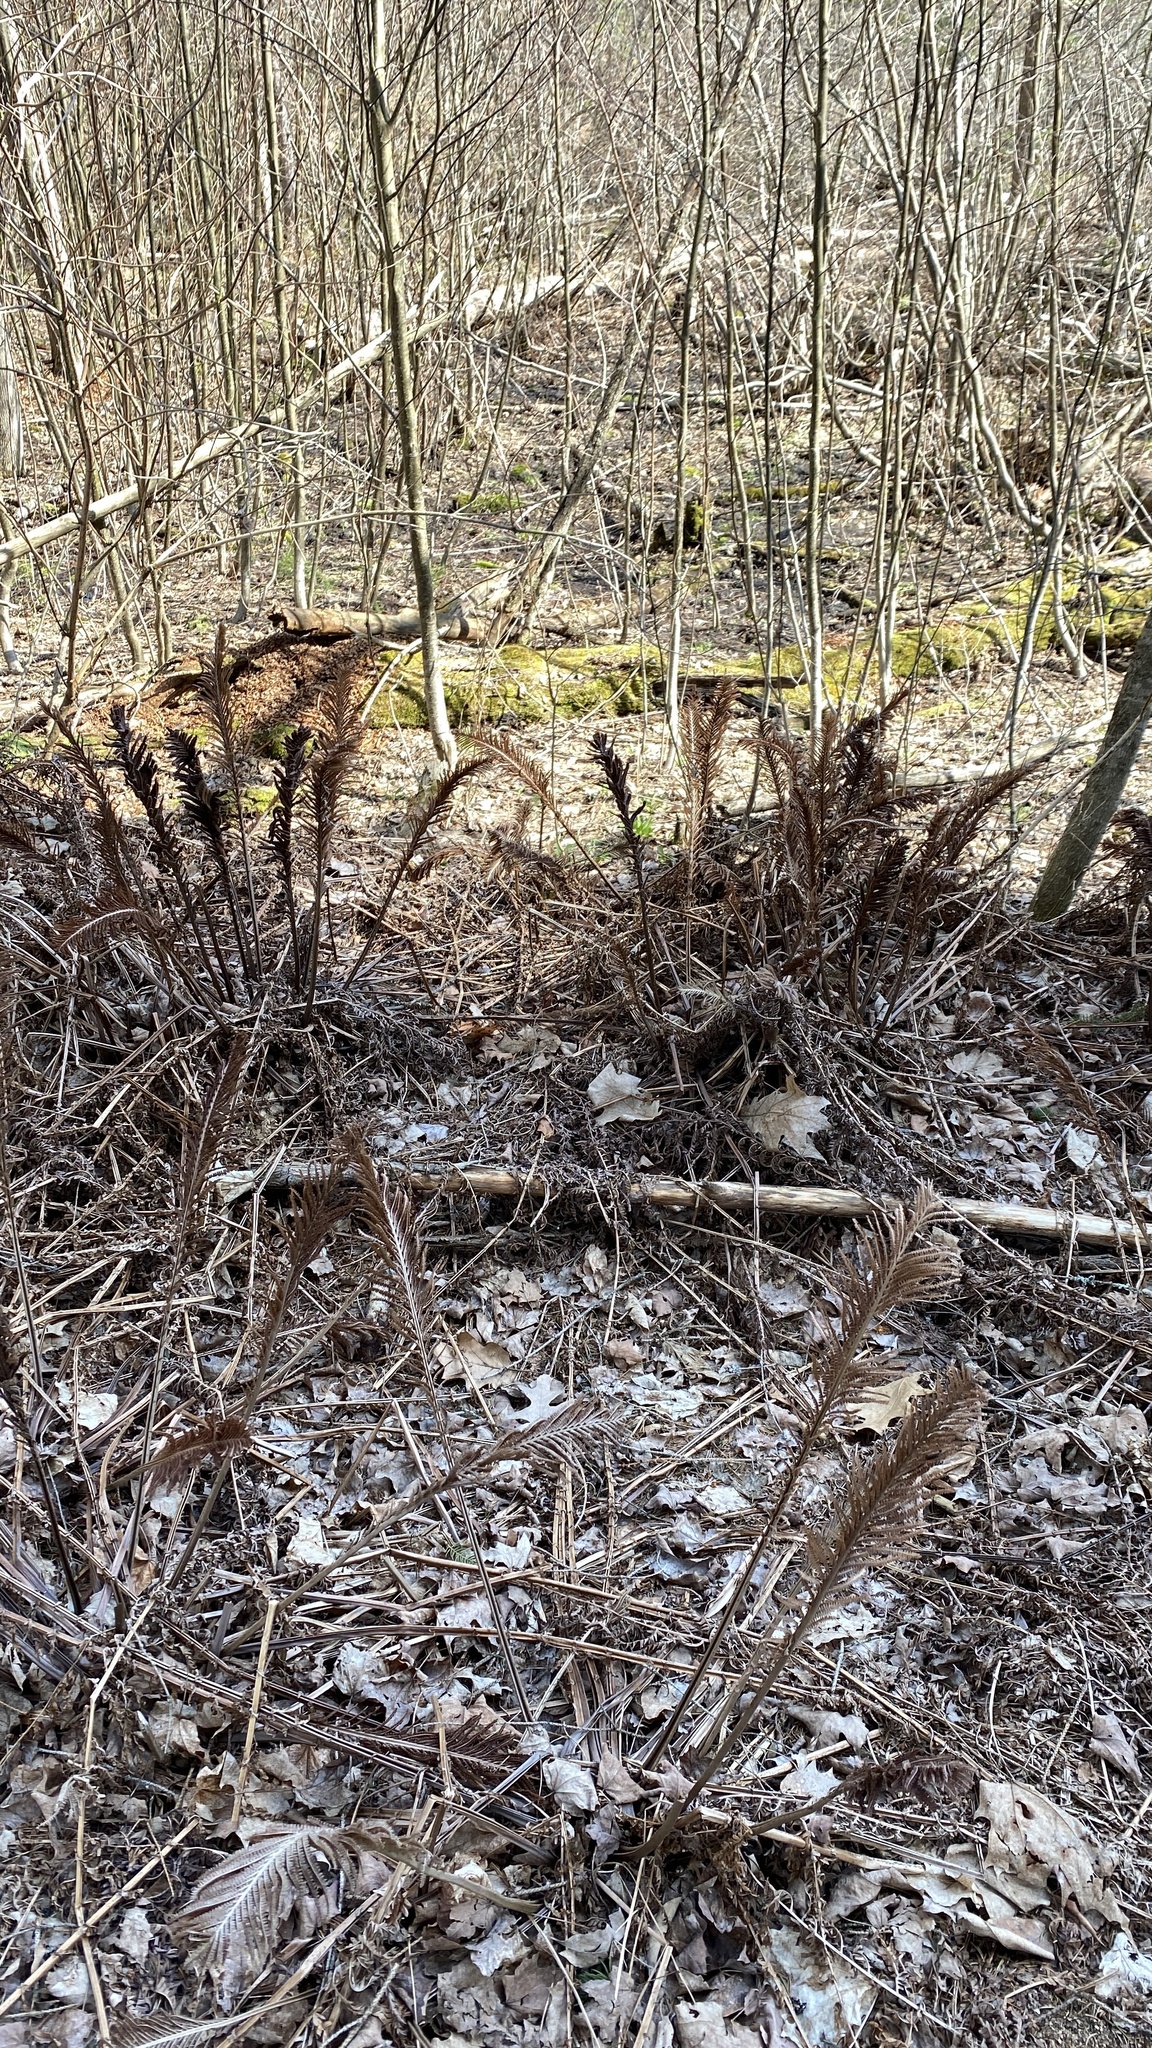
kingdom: Plantae
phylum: Tracheophyta
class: Polypodiopsida
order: Polypodiales
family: Onocleaceae
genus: Matteuccia
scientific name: Matteuccia struthiopteris
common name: Ostrich fern
